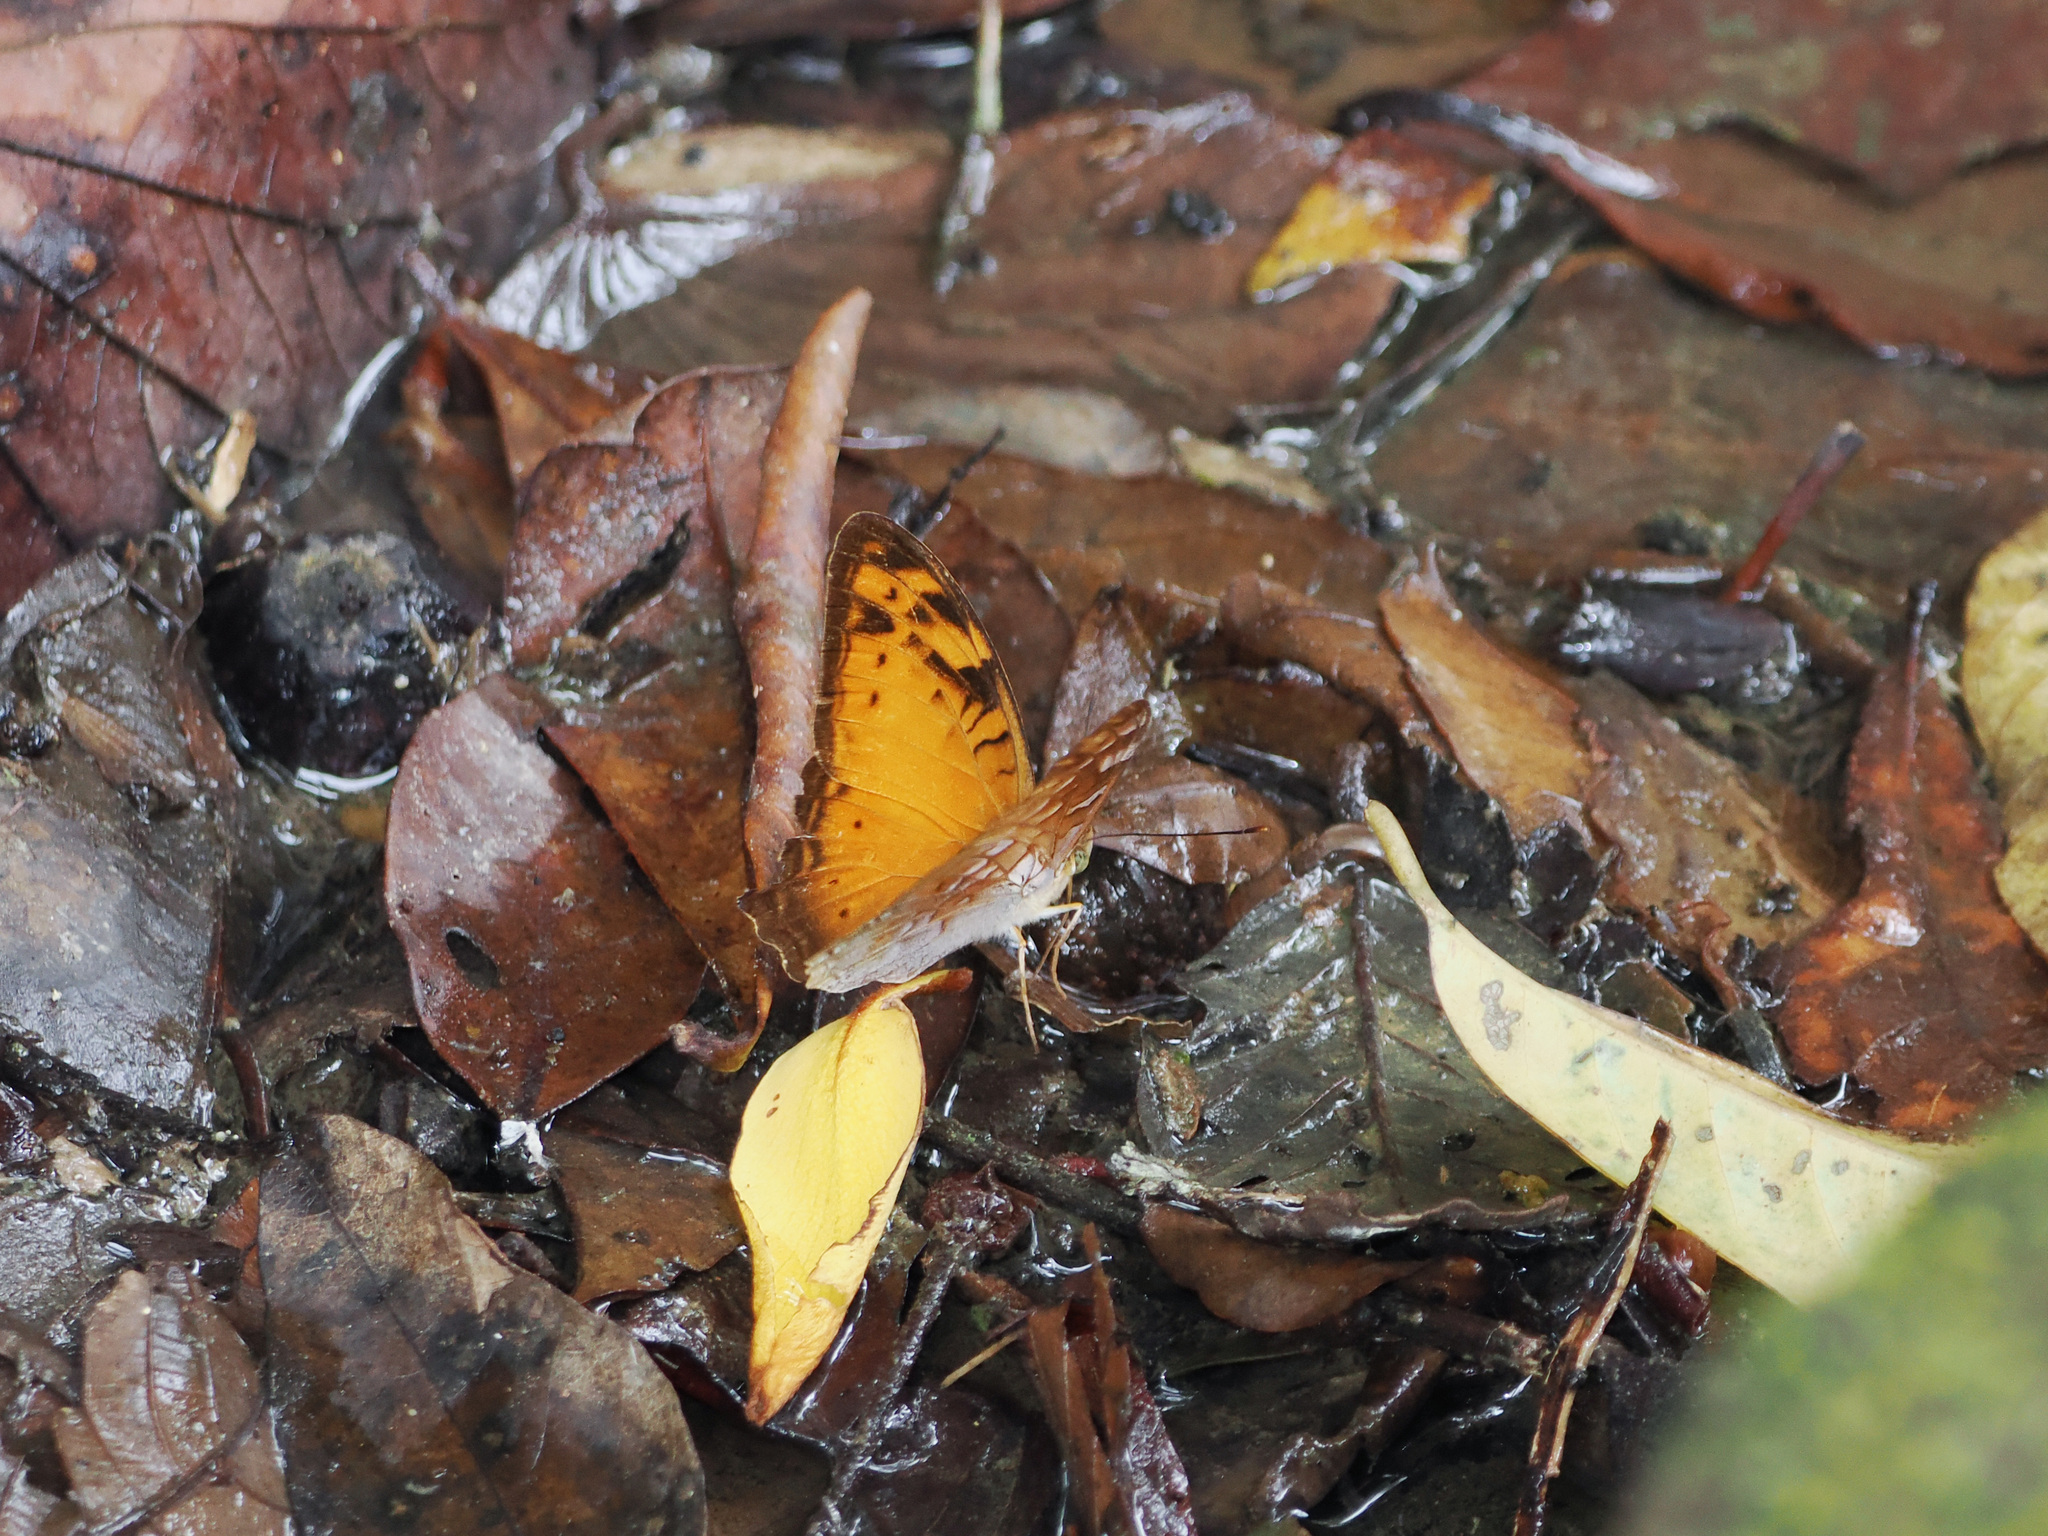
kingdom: Animalia
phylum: Arthropoda
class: Insecta
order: Lepidoptera
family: Nymphalidae
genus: Vagrans
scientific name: Vagrans sinha
